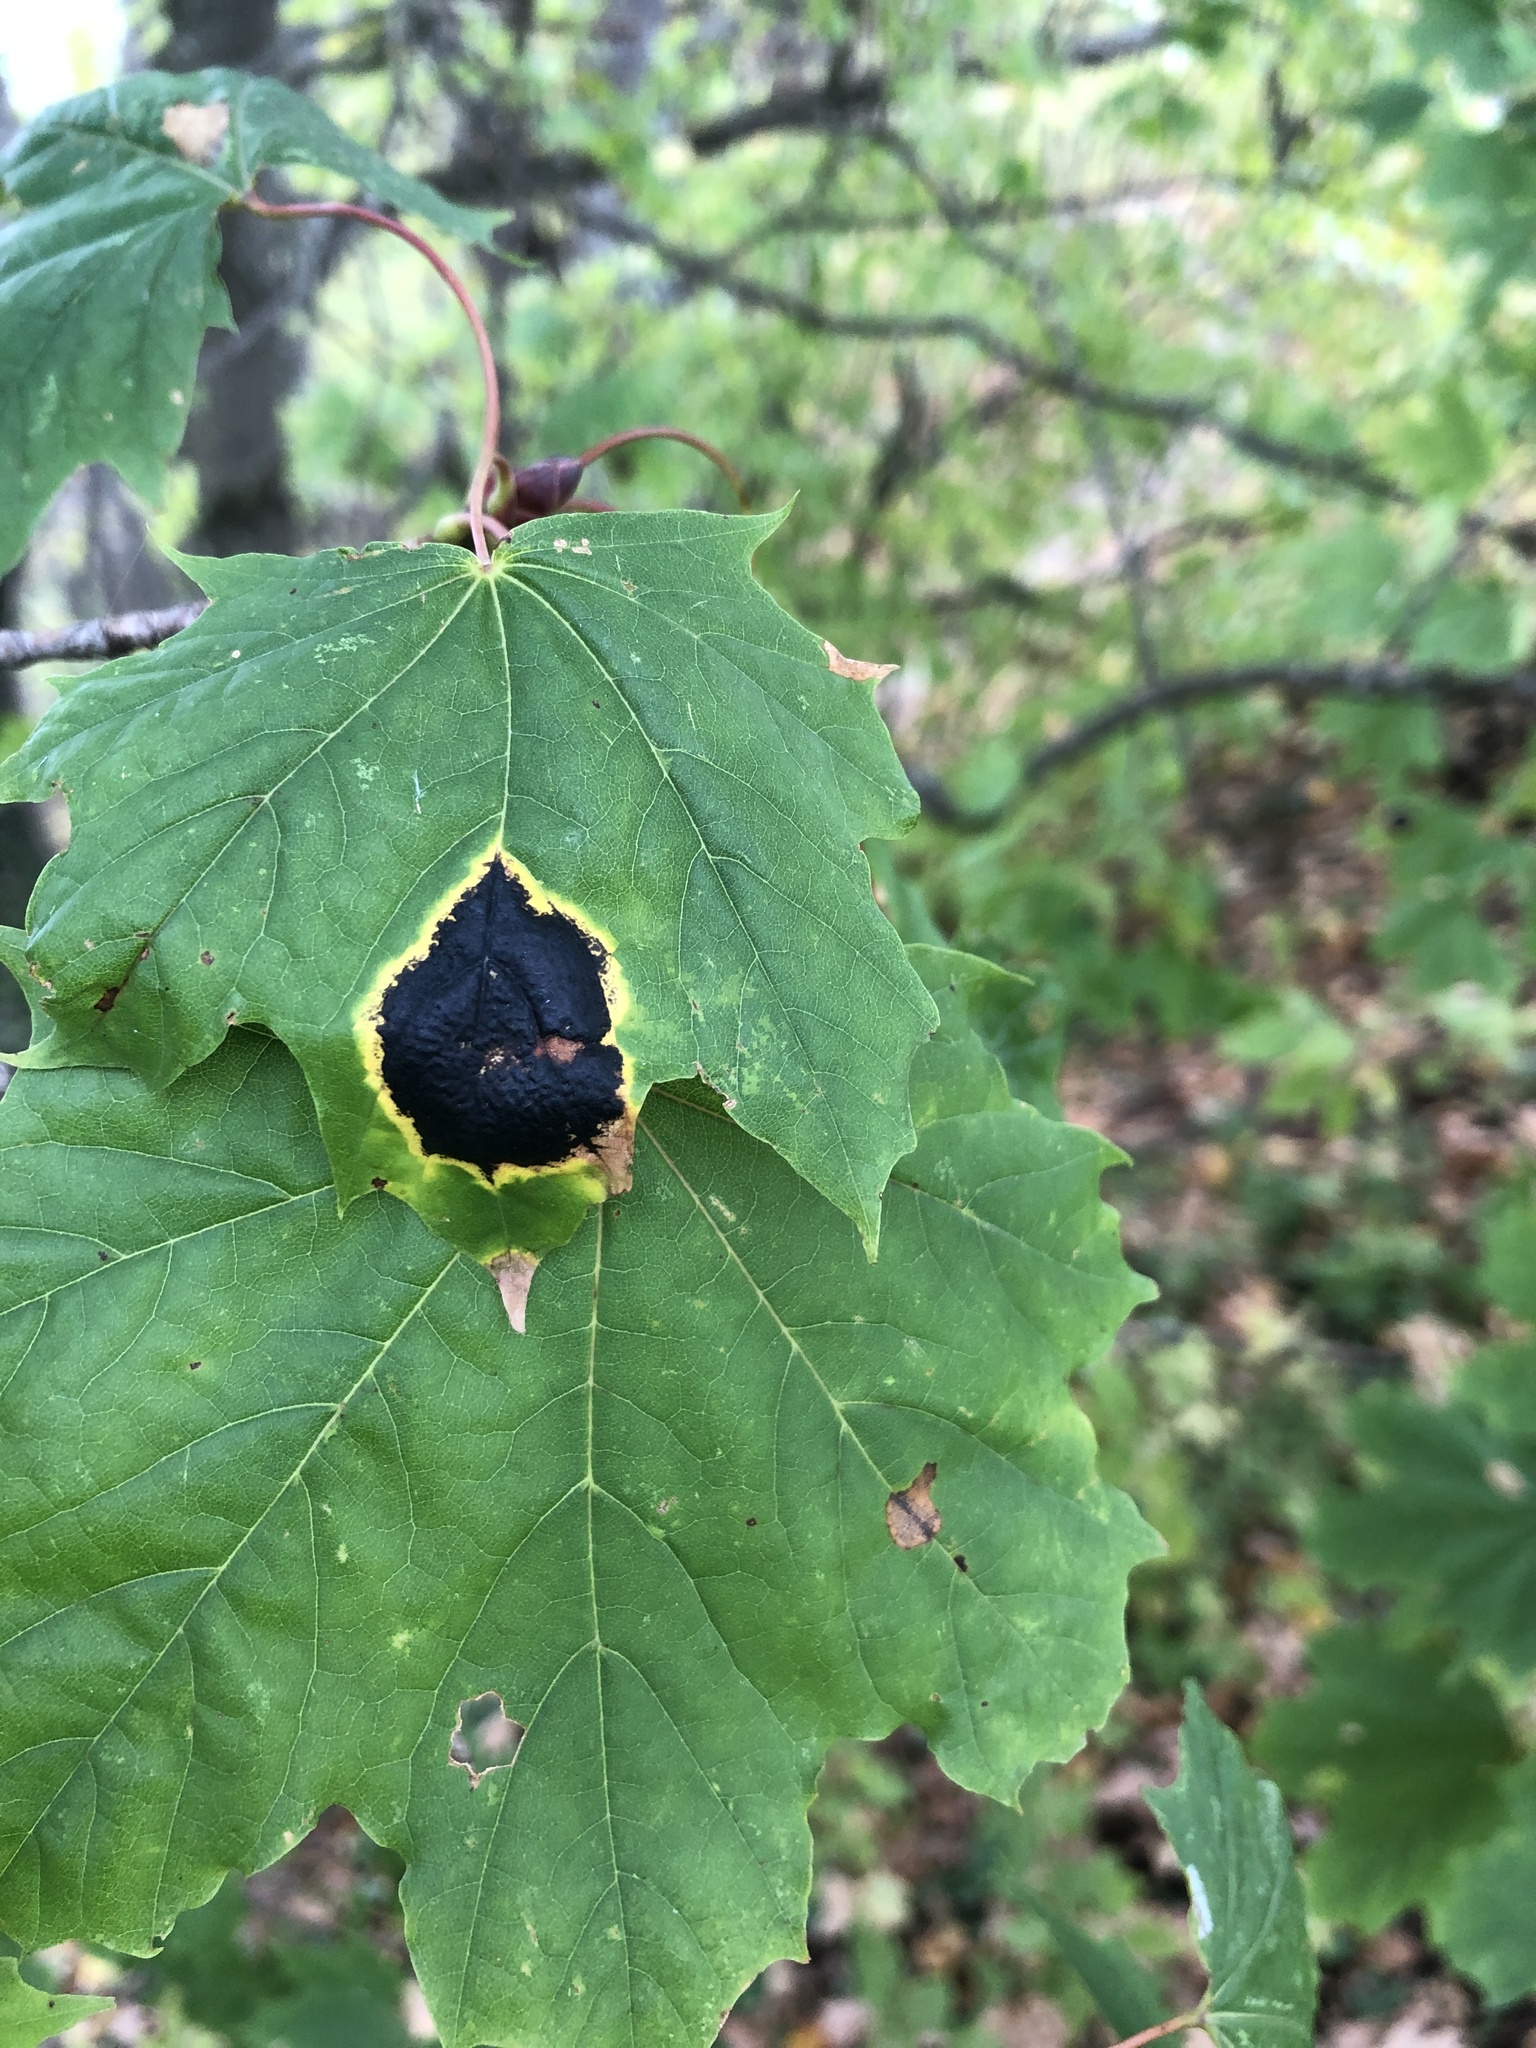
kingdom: Fungi
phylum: Ascomycota
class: Leotiomycetes
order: Rhytismatales
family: Rhytismataceae
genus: Rhytisma
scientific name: Rhytisma acerinum
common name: European tar spot
